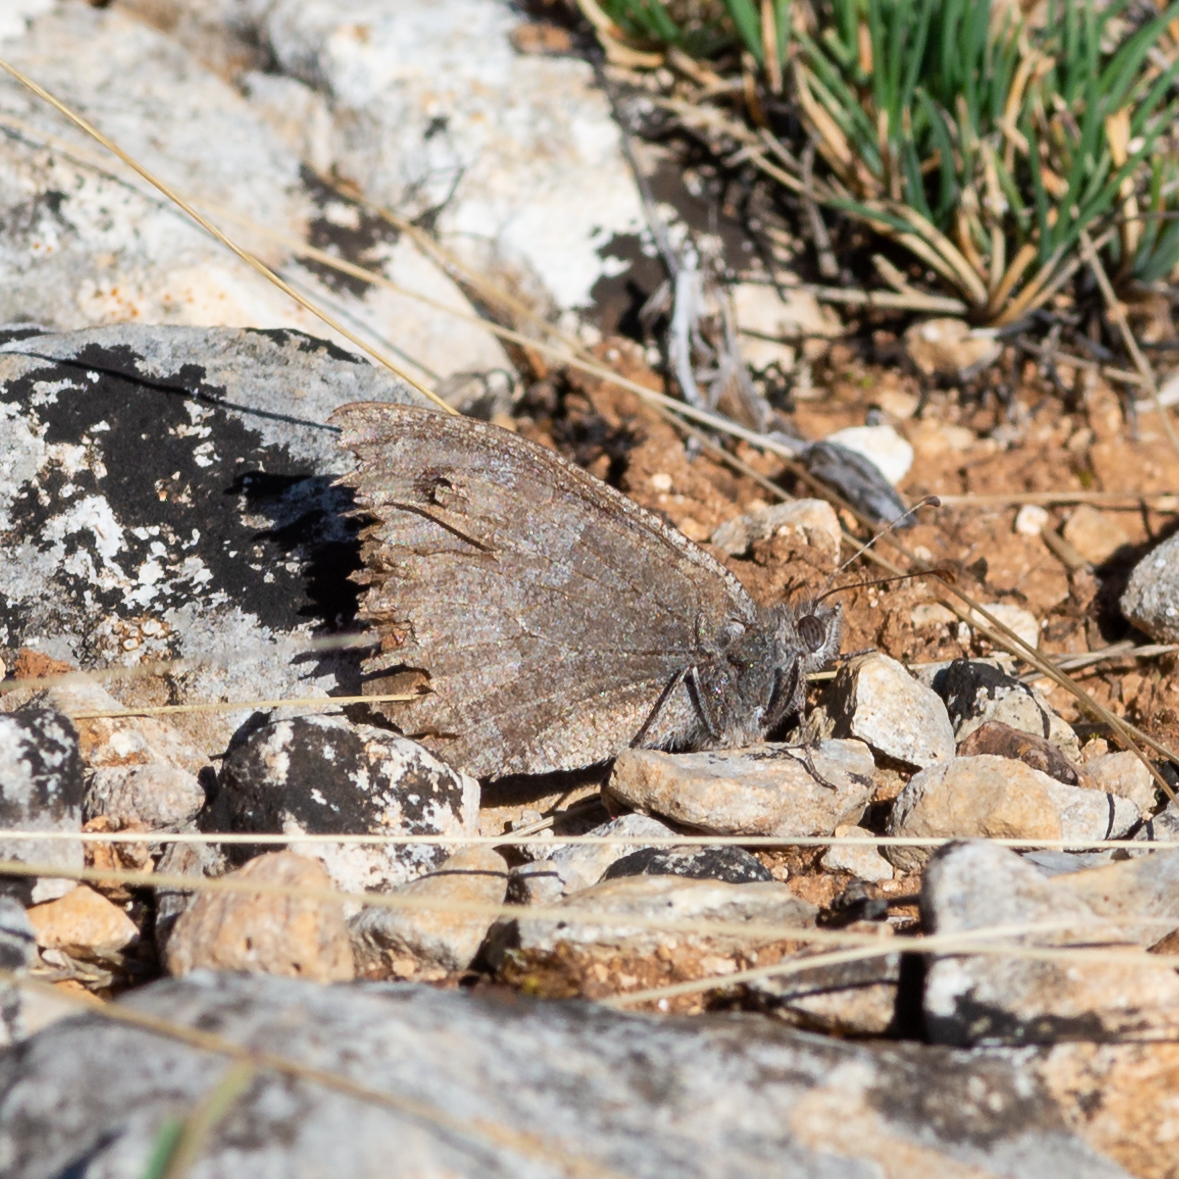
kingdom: Animalia
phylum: Arthropoda
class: Insecta
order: Lepidoptera
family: Nymphalidae
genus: Hipparchia
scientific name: Hipparchia statilinus
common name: Tree grayling
